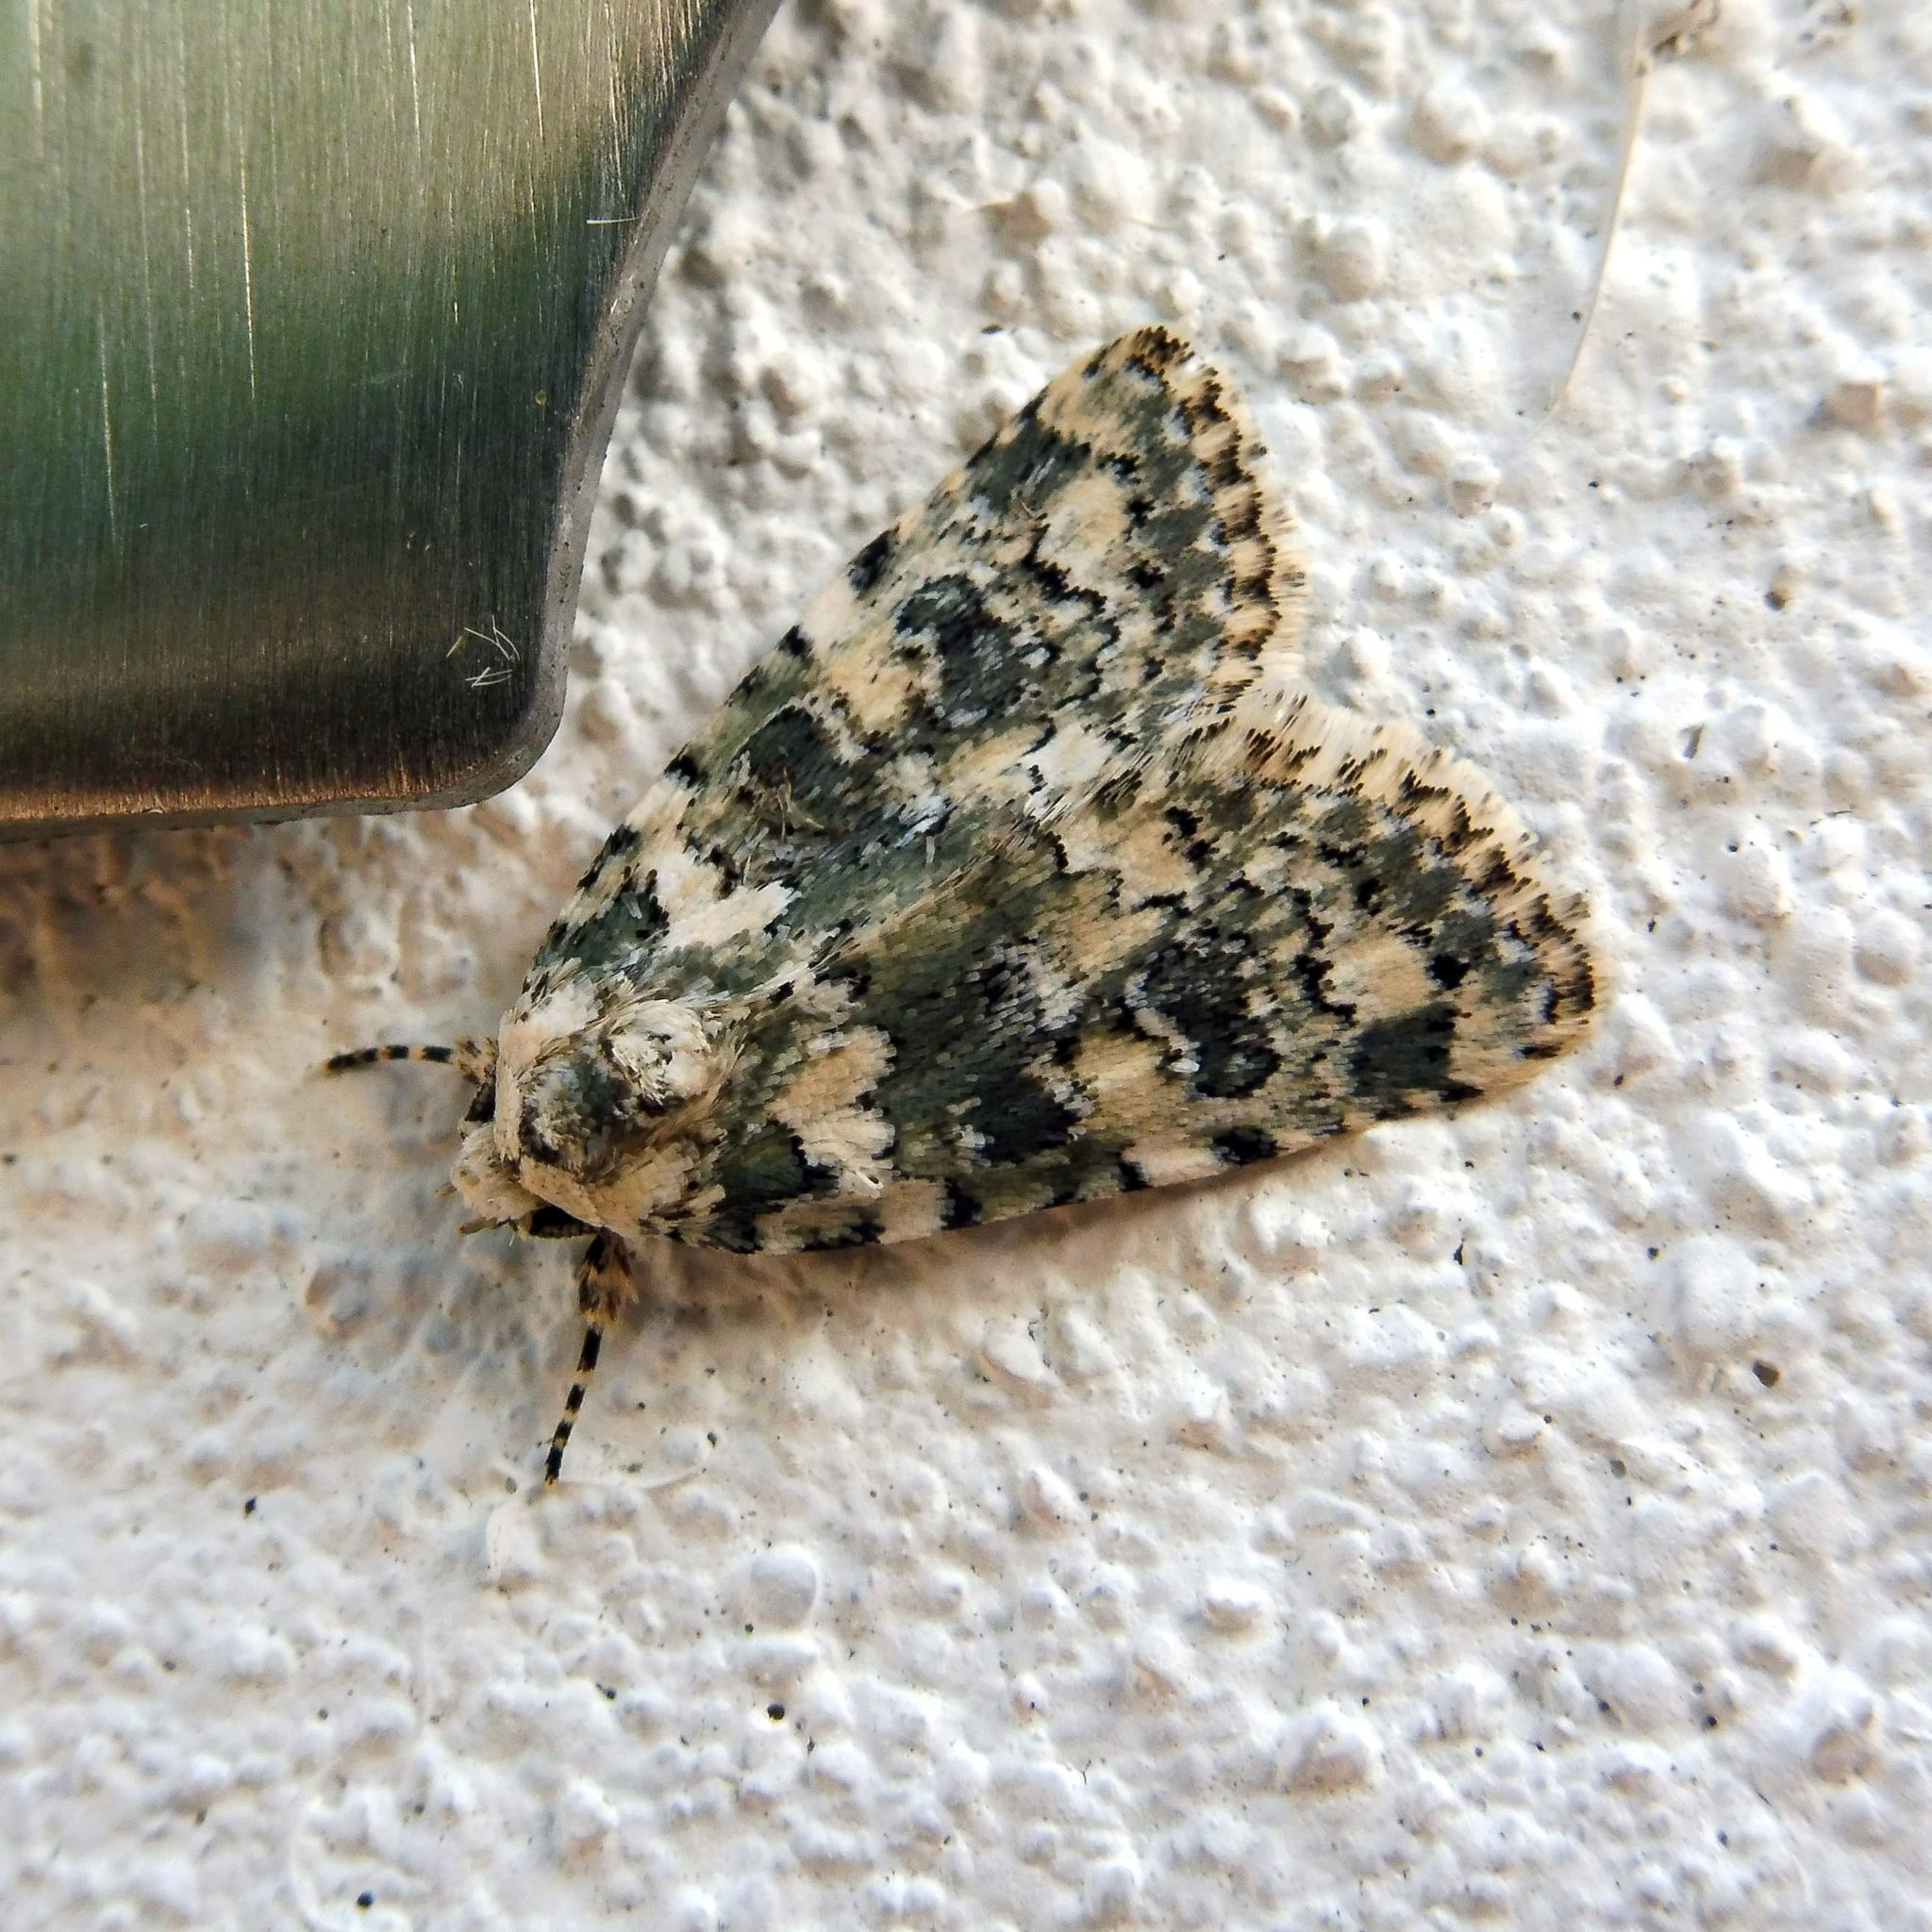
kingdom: Animalia
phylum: Arthropoda
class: Insecta
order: Lepidoptera
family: Noctuidae
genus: Bryophila
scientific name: Bryophila domestica
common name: Marbled beauty
